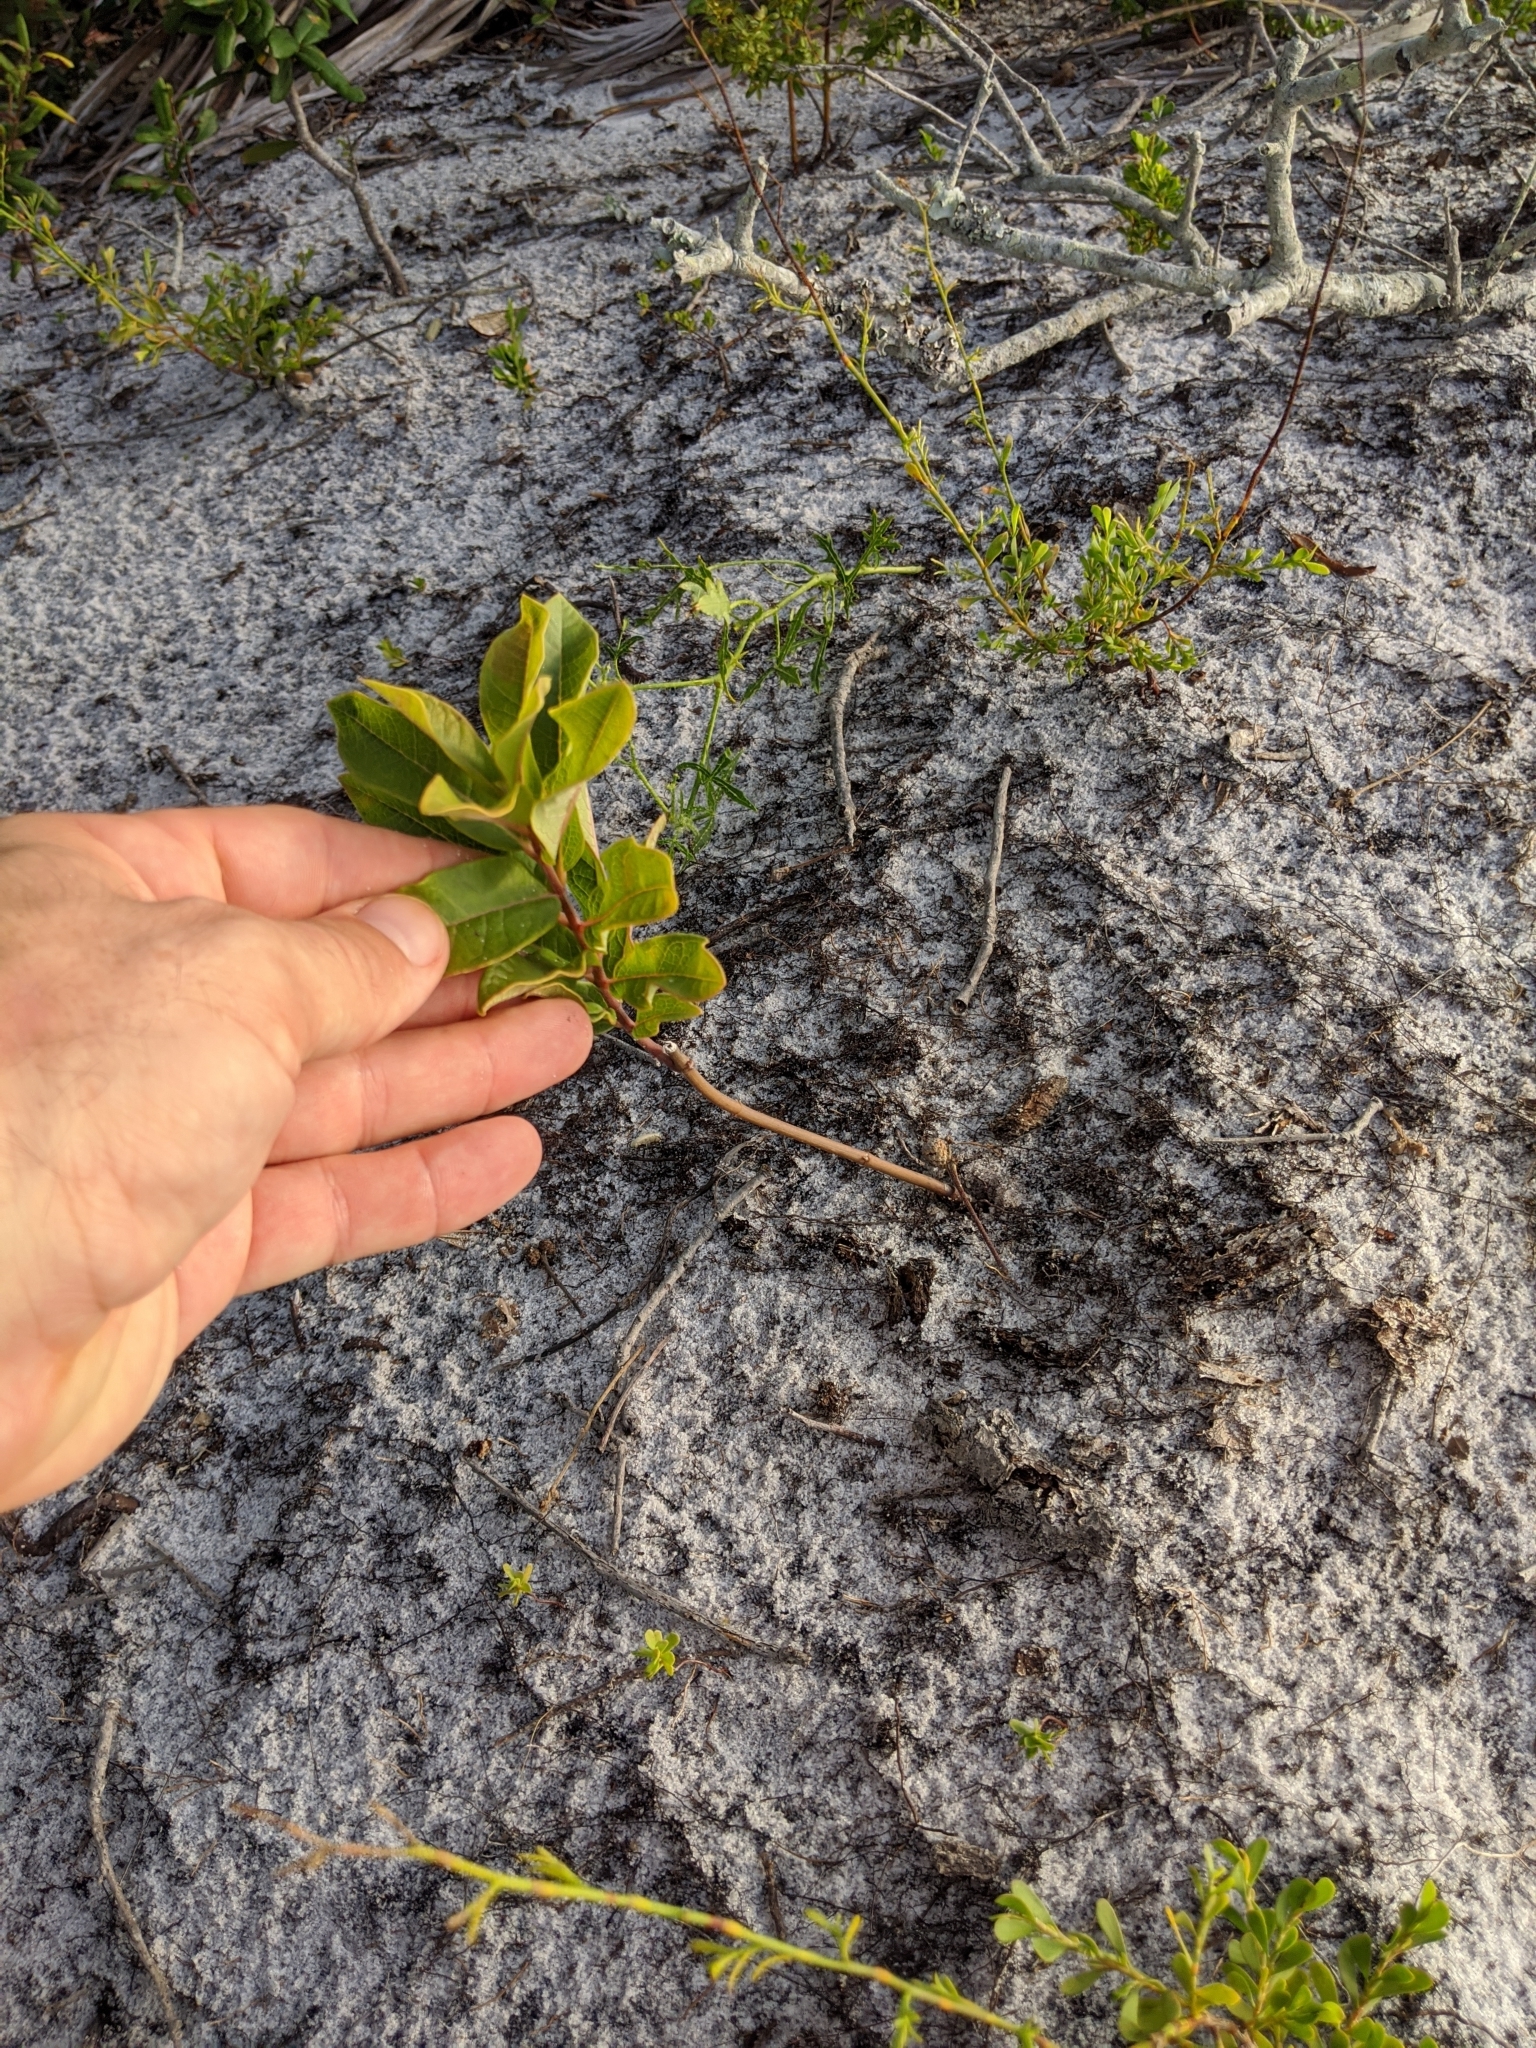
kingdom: Plantae
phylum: Tracheophyta
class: Magnoliopsida
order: Gentianales
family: Apocynaceae
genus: Asclepias
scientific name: Asclepias tomentosa
